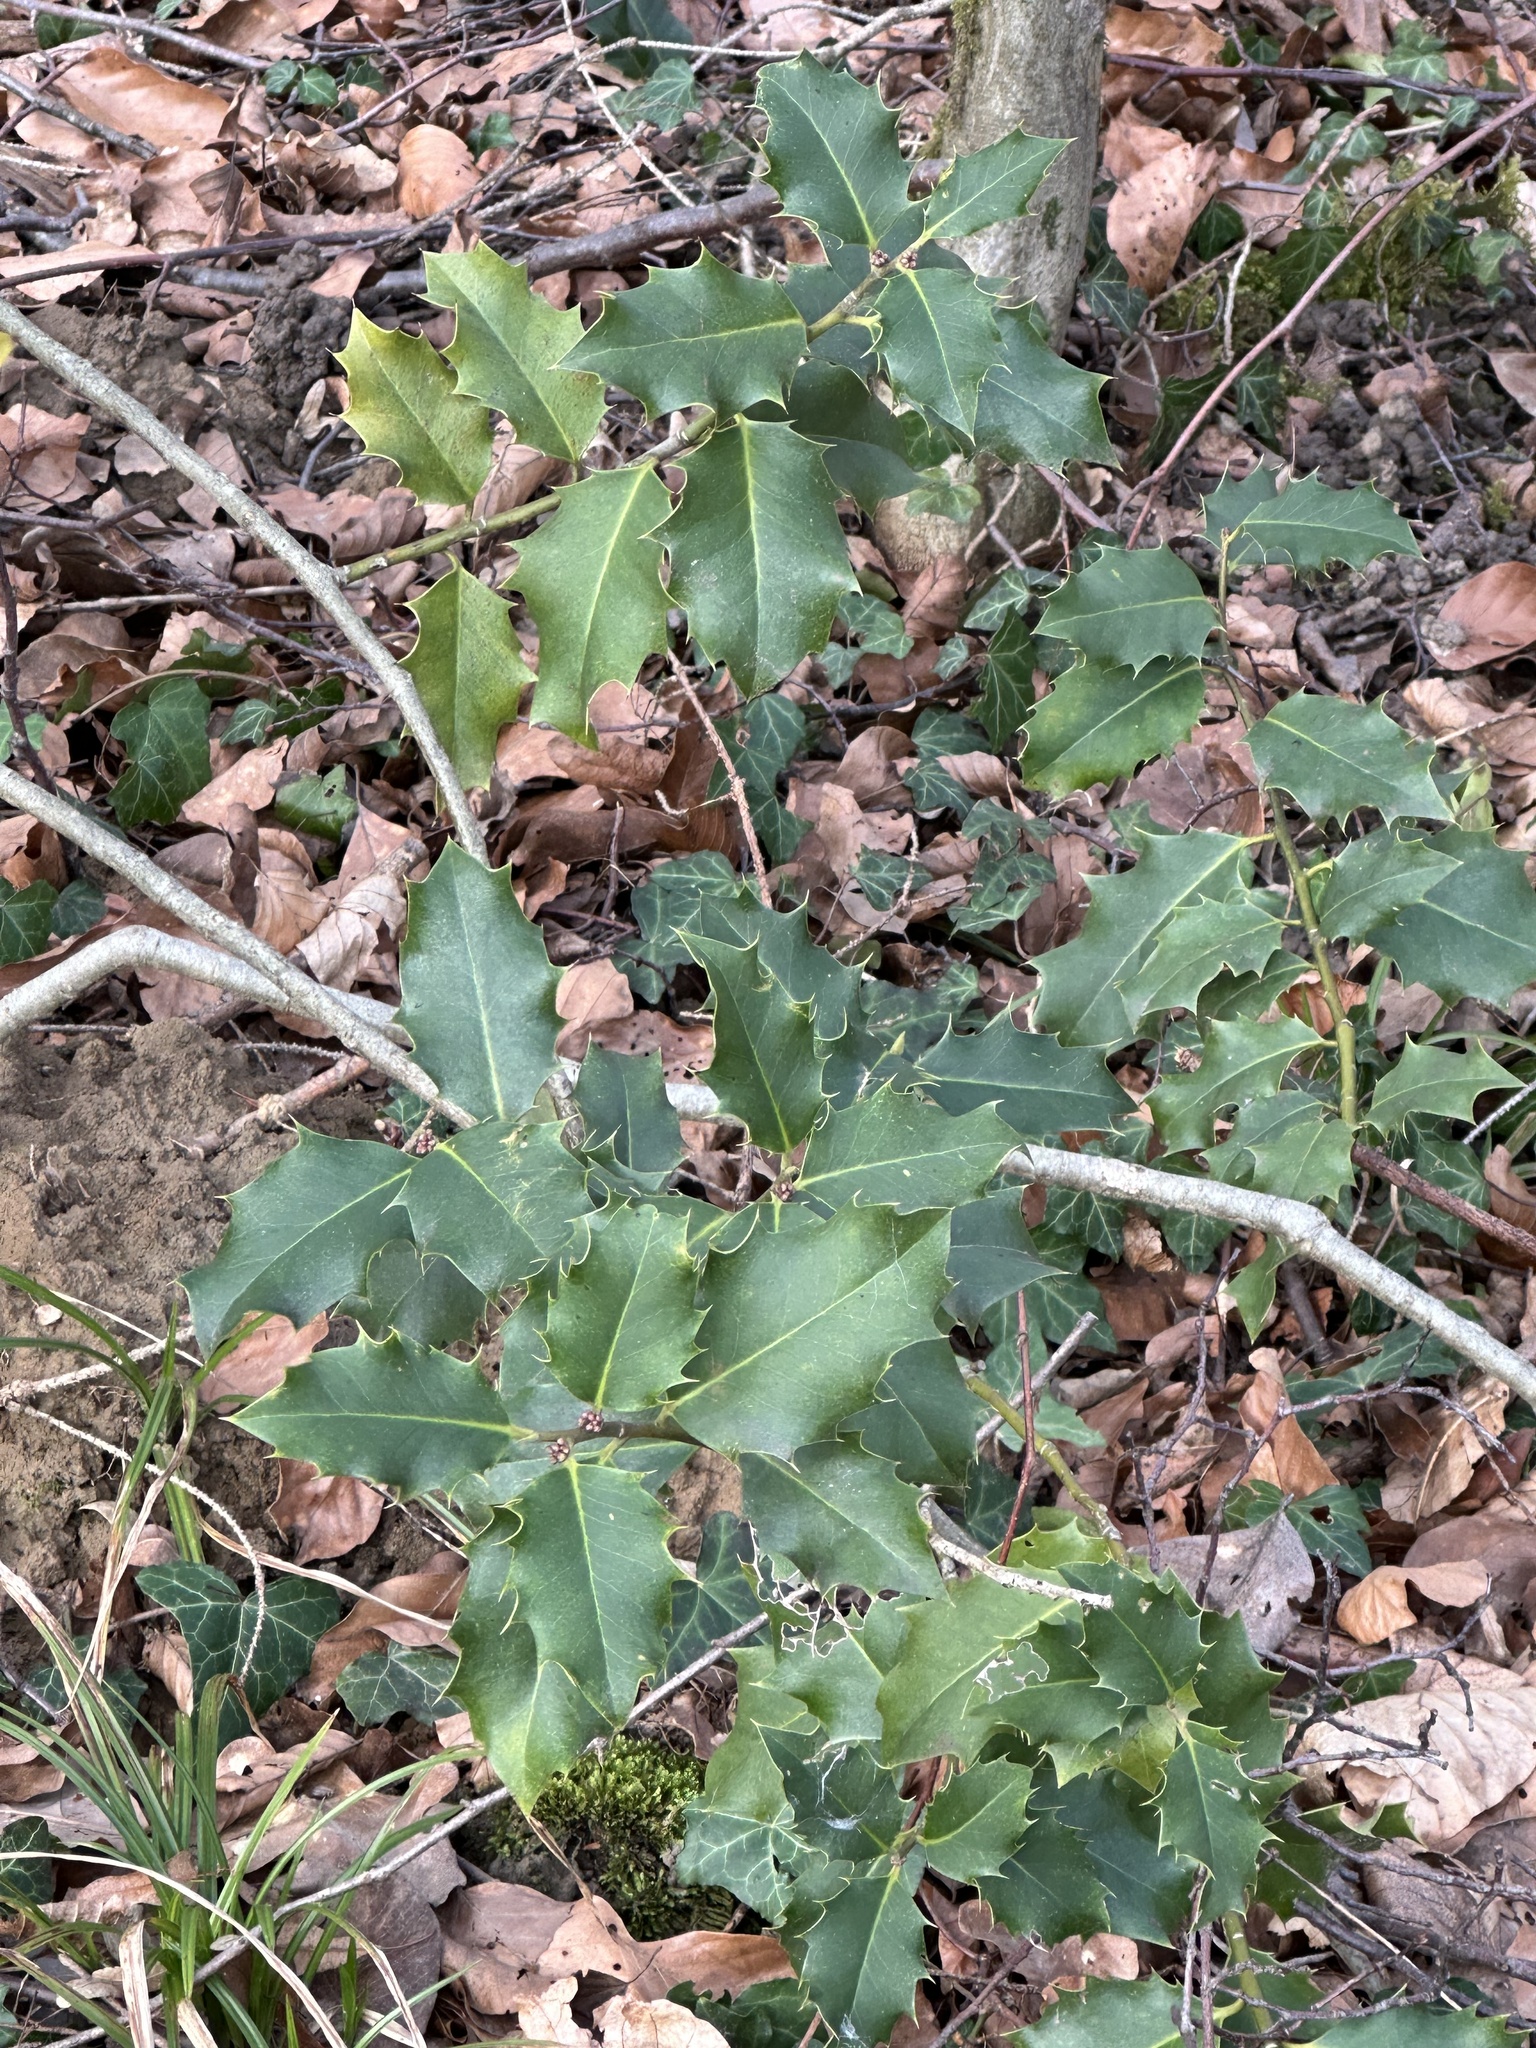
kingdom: Plantae
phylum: Tracheophyta
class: Magnoliopsida
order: Aquifoliales
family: Aquifoliaceae
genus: Ilex
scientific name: Ilex aquifolium
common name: English holly
